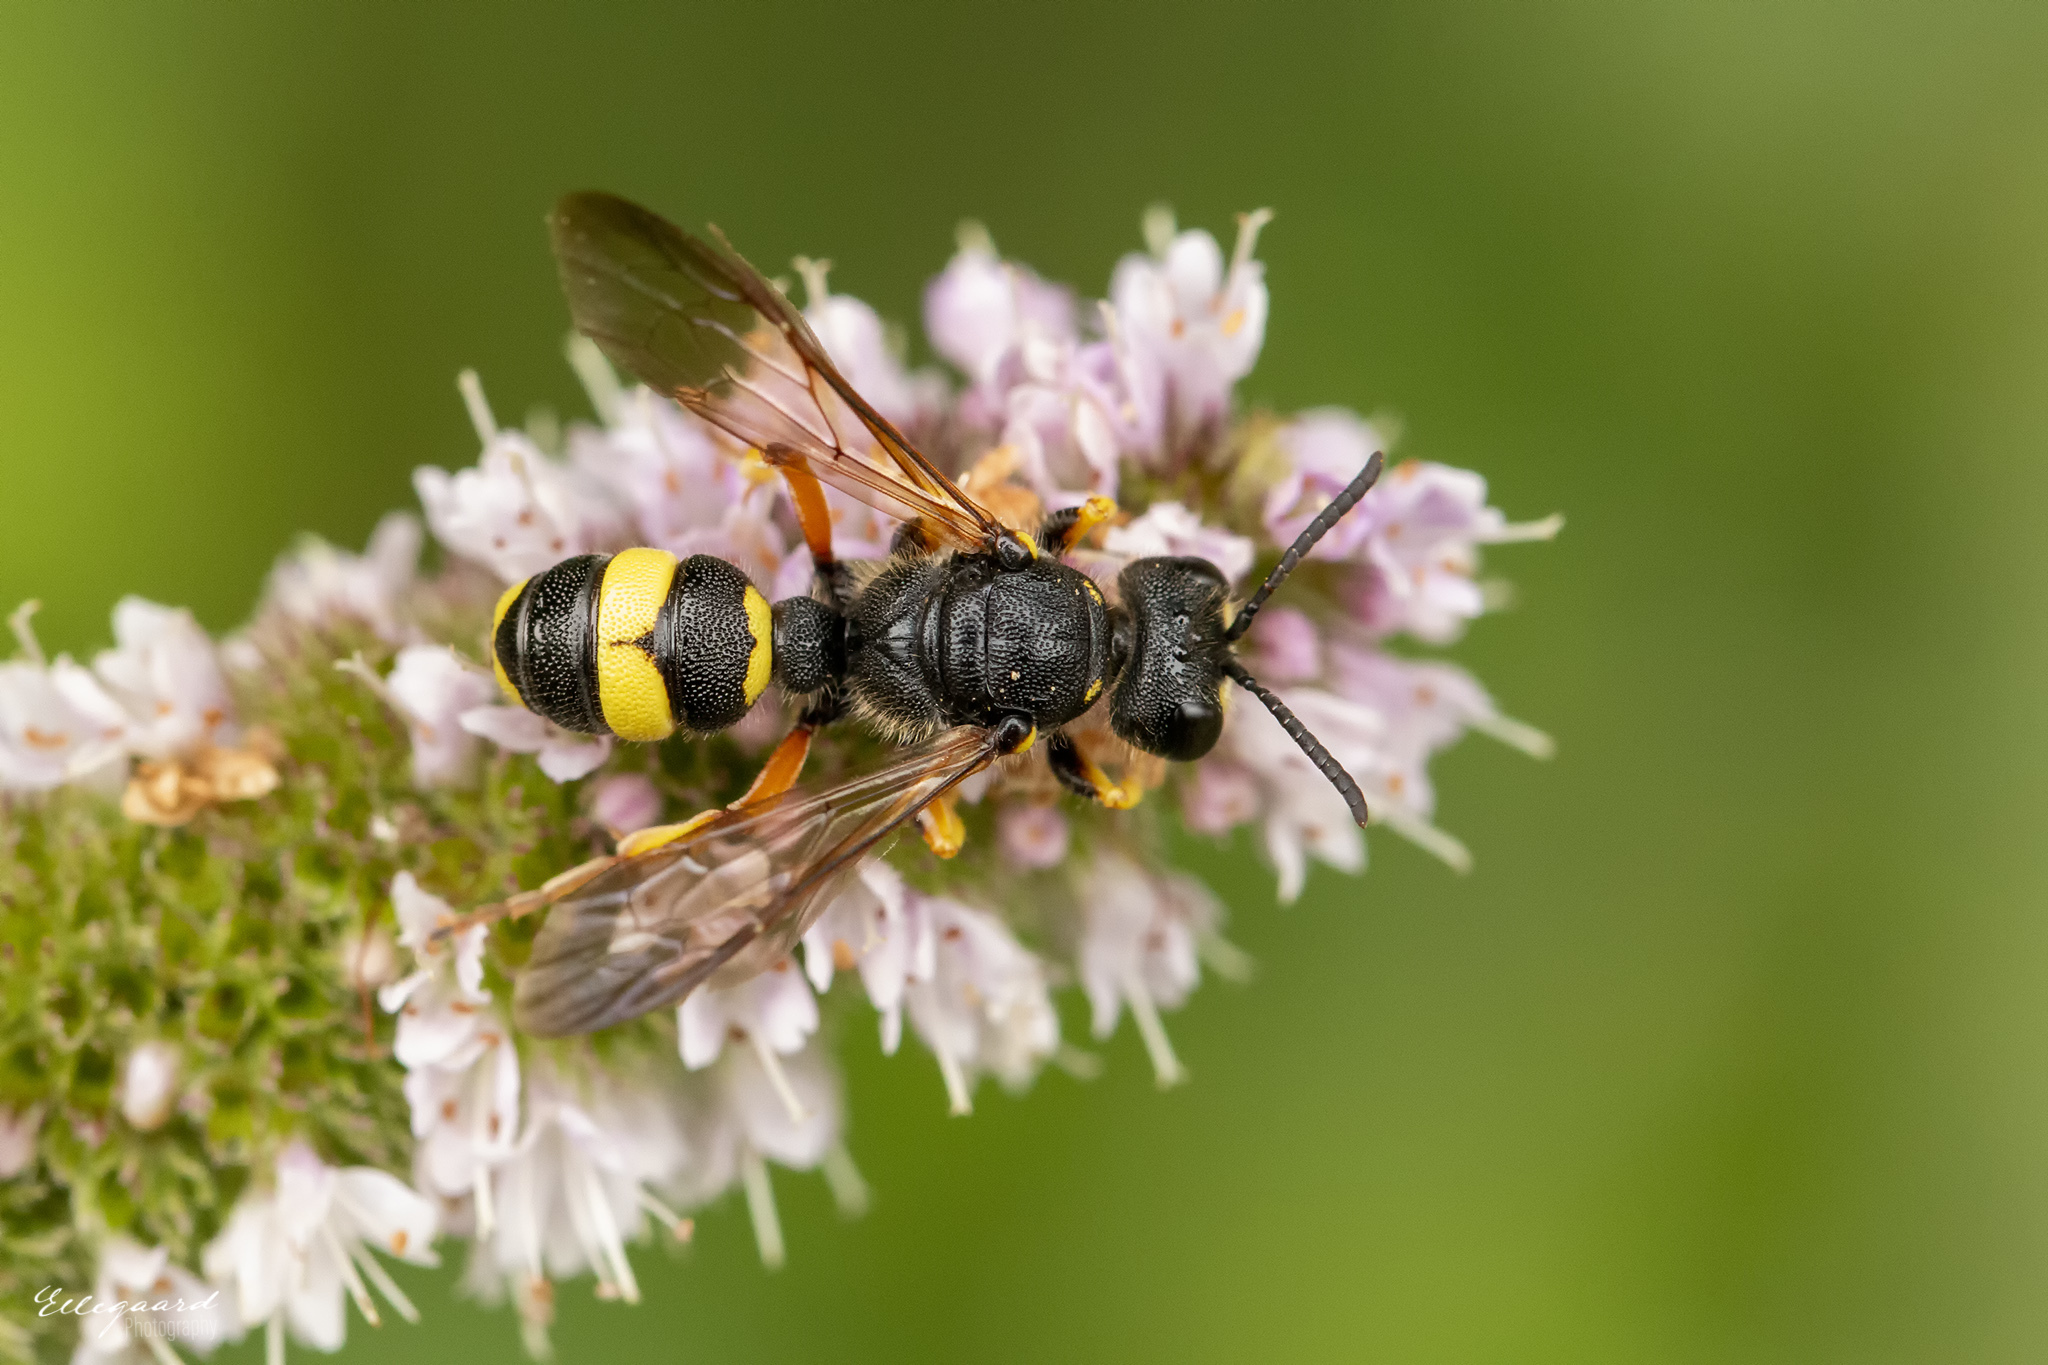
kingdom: Animalia
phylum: Arthropoda
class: Insecta
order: Hymenoptera
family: Crabronidae
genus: Cerceris
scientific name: Cerceris rybyensis
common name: Ornate tailed digger wasp
